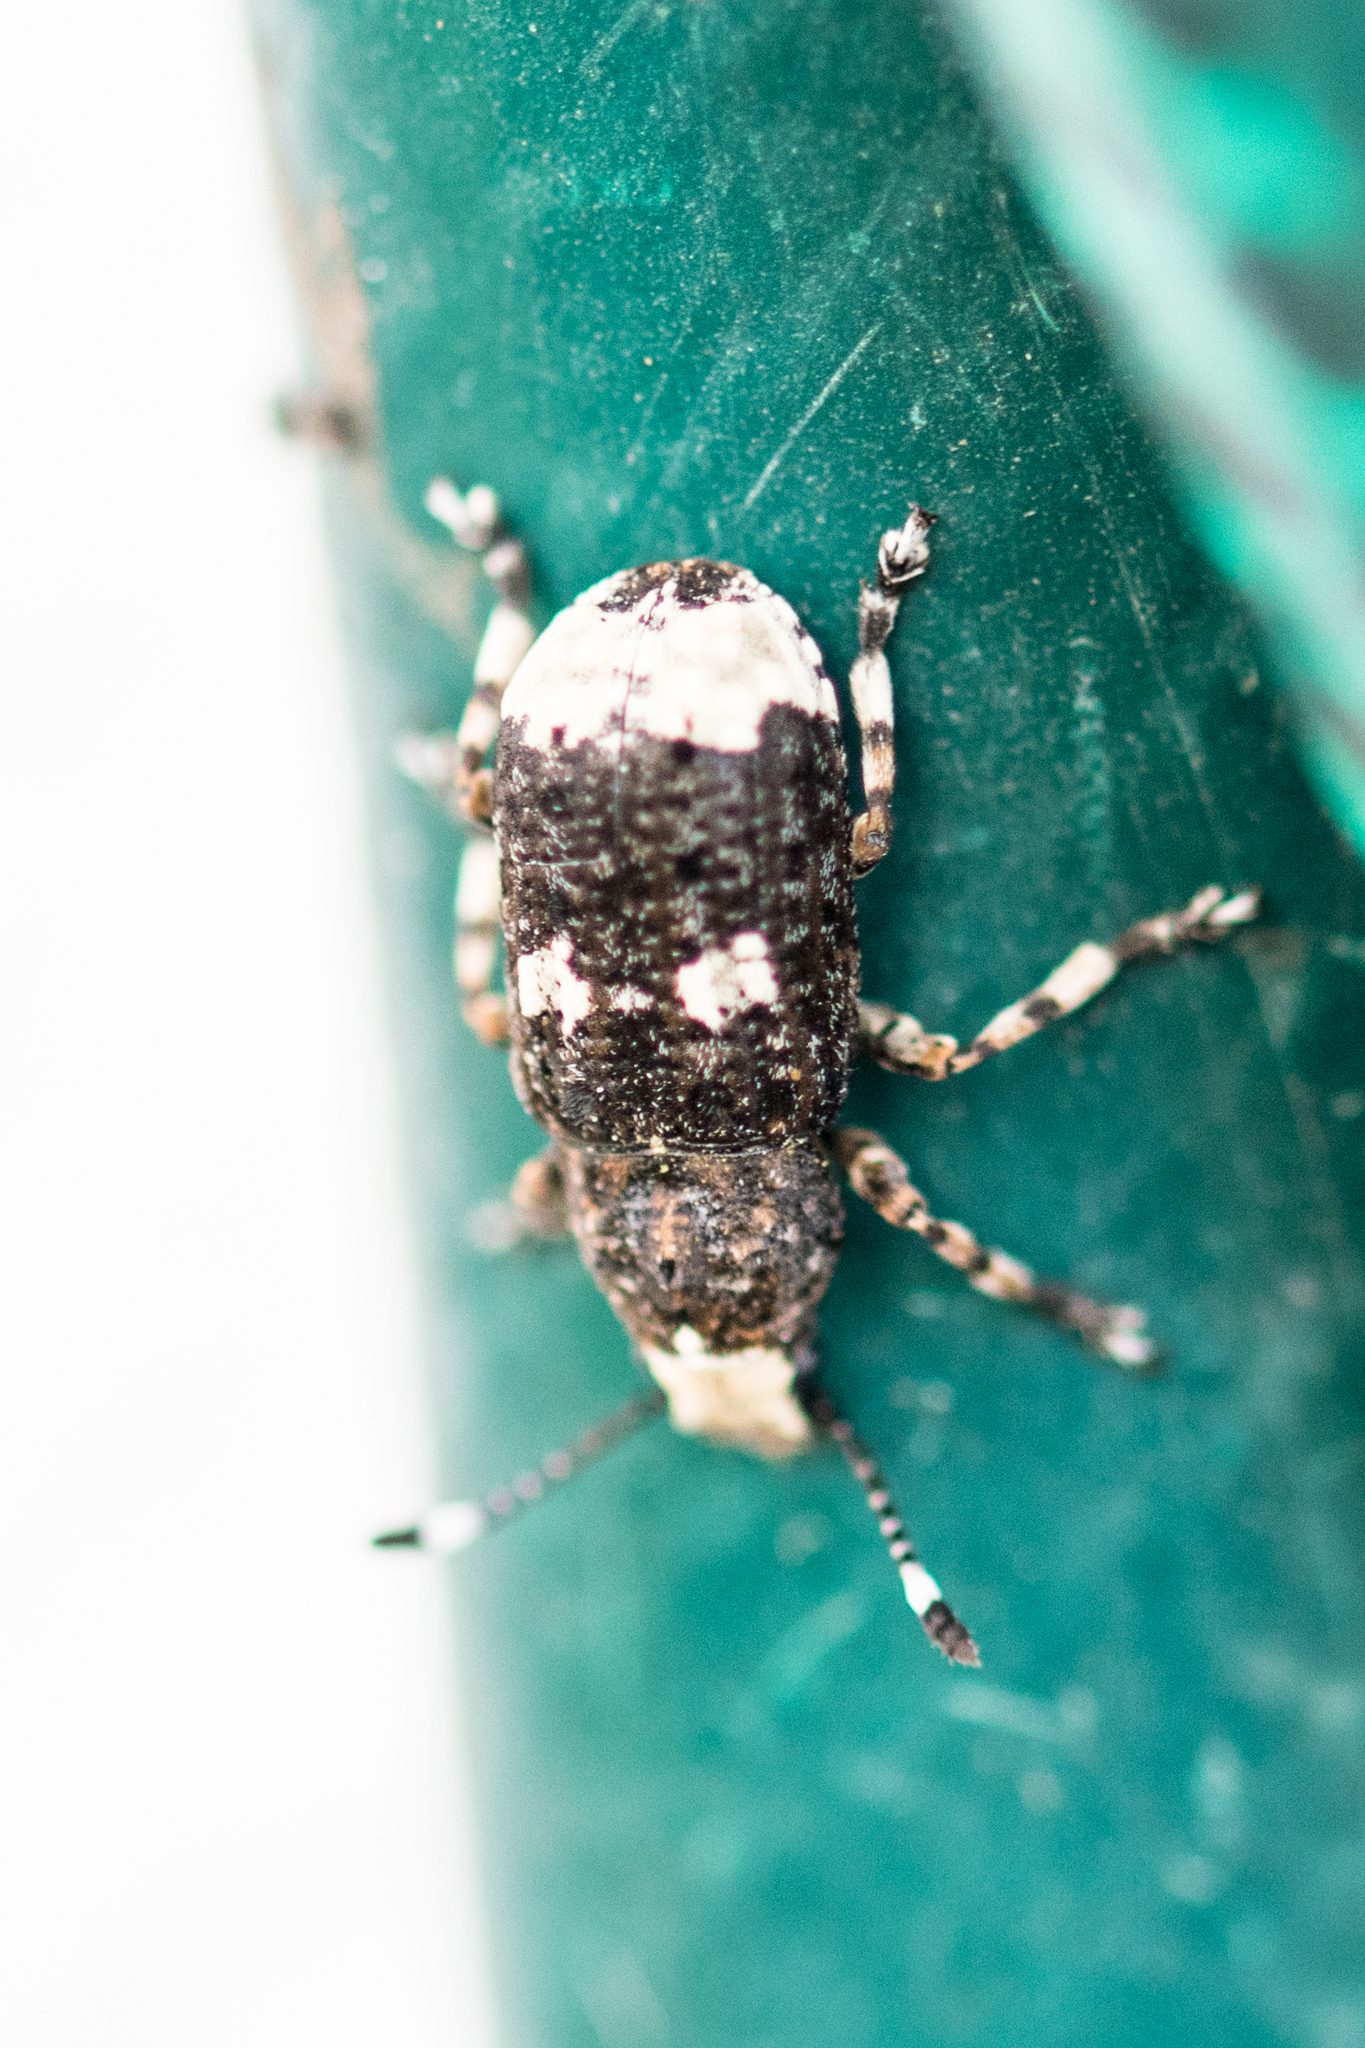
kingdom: Animalia
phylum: Arthropoda
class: Insecta
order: Coleoptera
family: Anthribidae
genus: Platystomos
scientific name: Platystomos albinus
